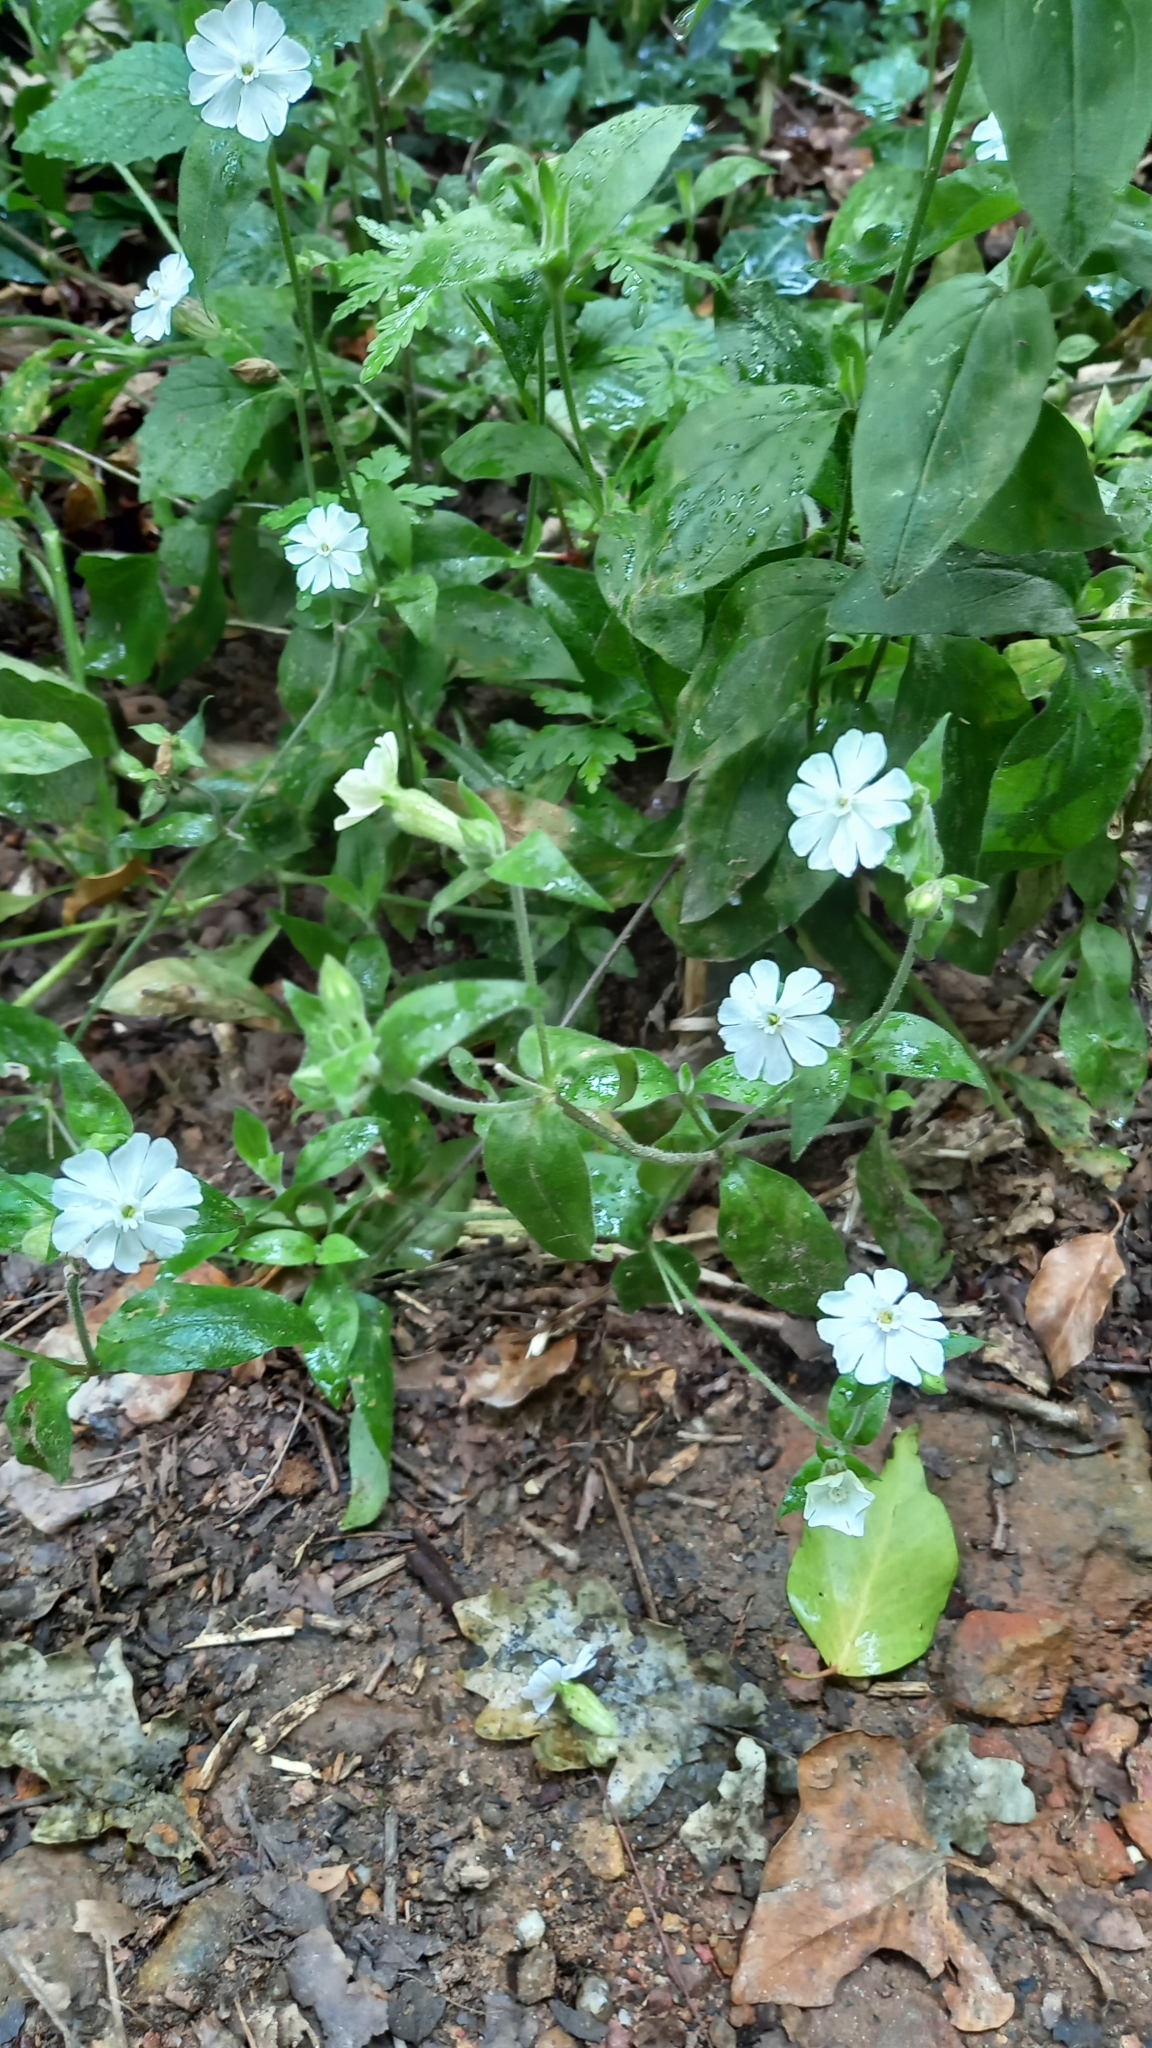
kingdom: Plantae
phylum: Tracheophyta
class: Magnoliopsida
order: Caryophyllales
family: Caryophyllaceae
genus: Silene
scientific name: Silene latifolia
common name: White campion
